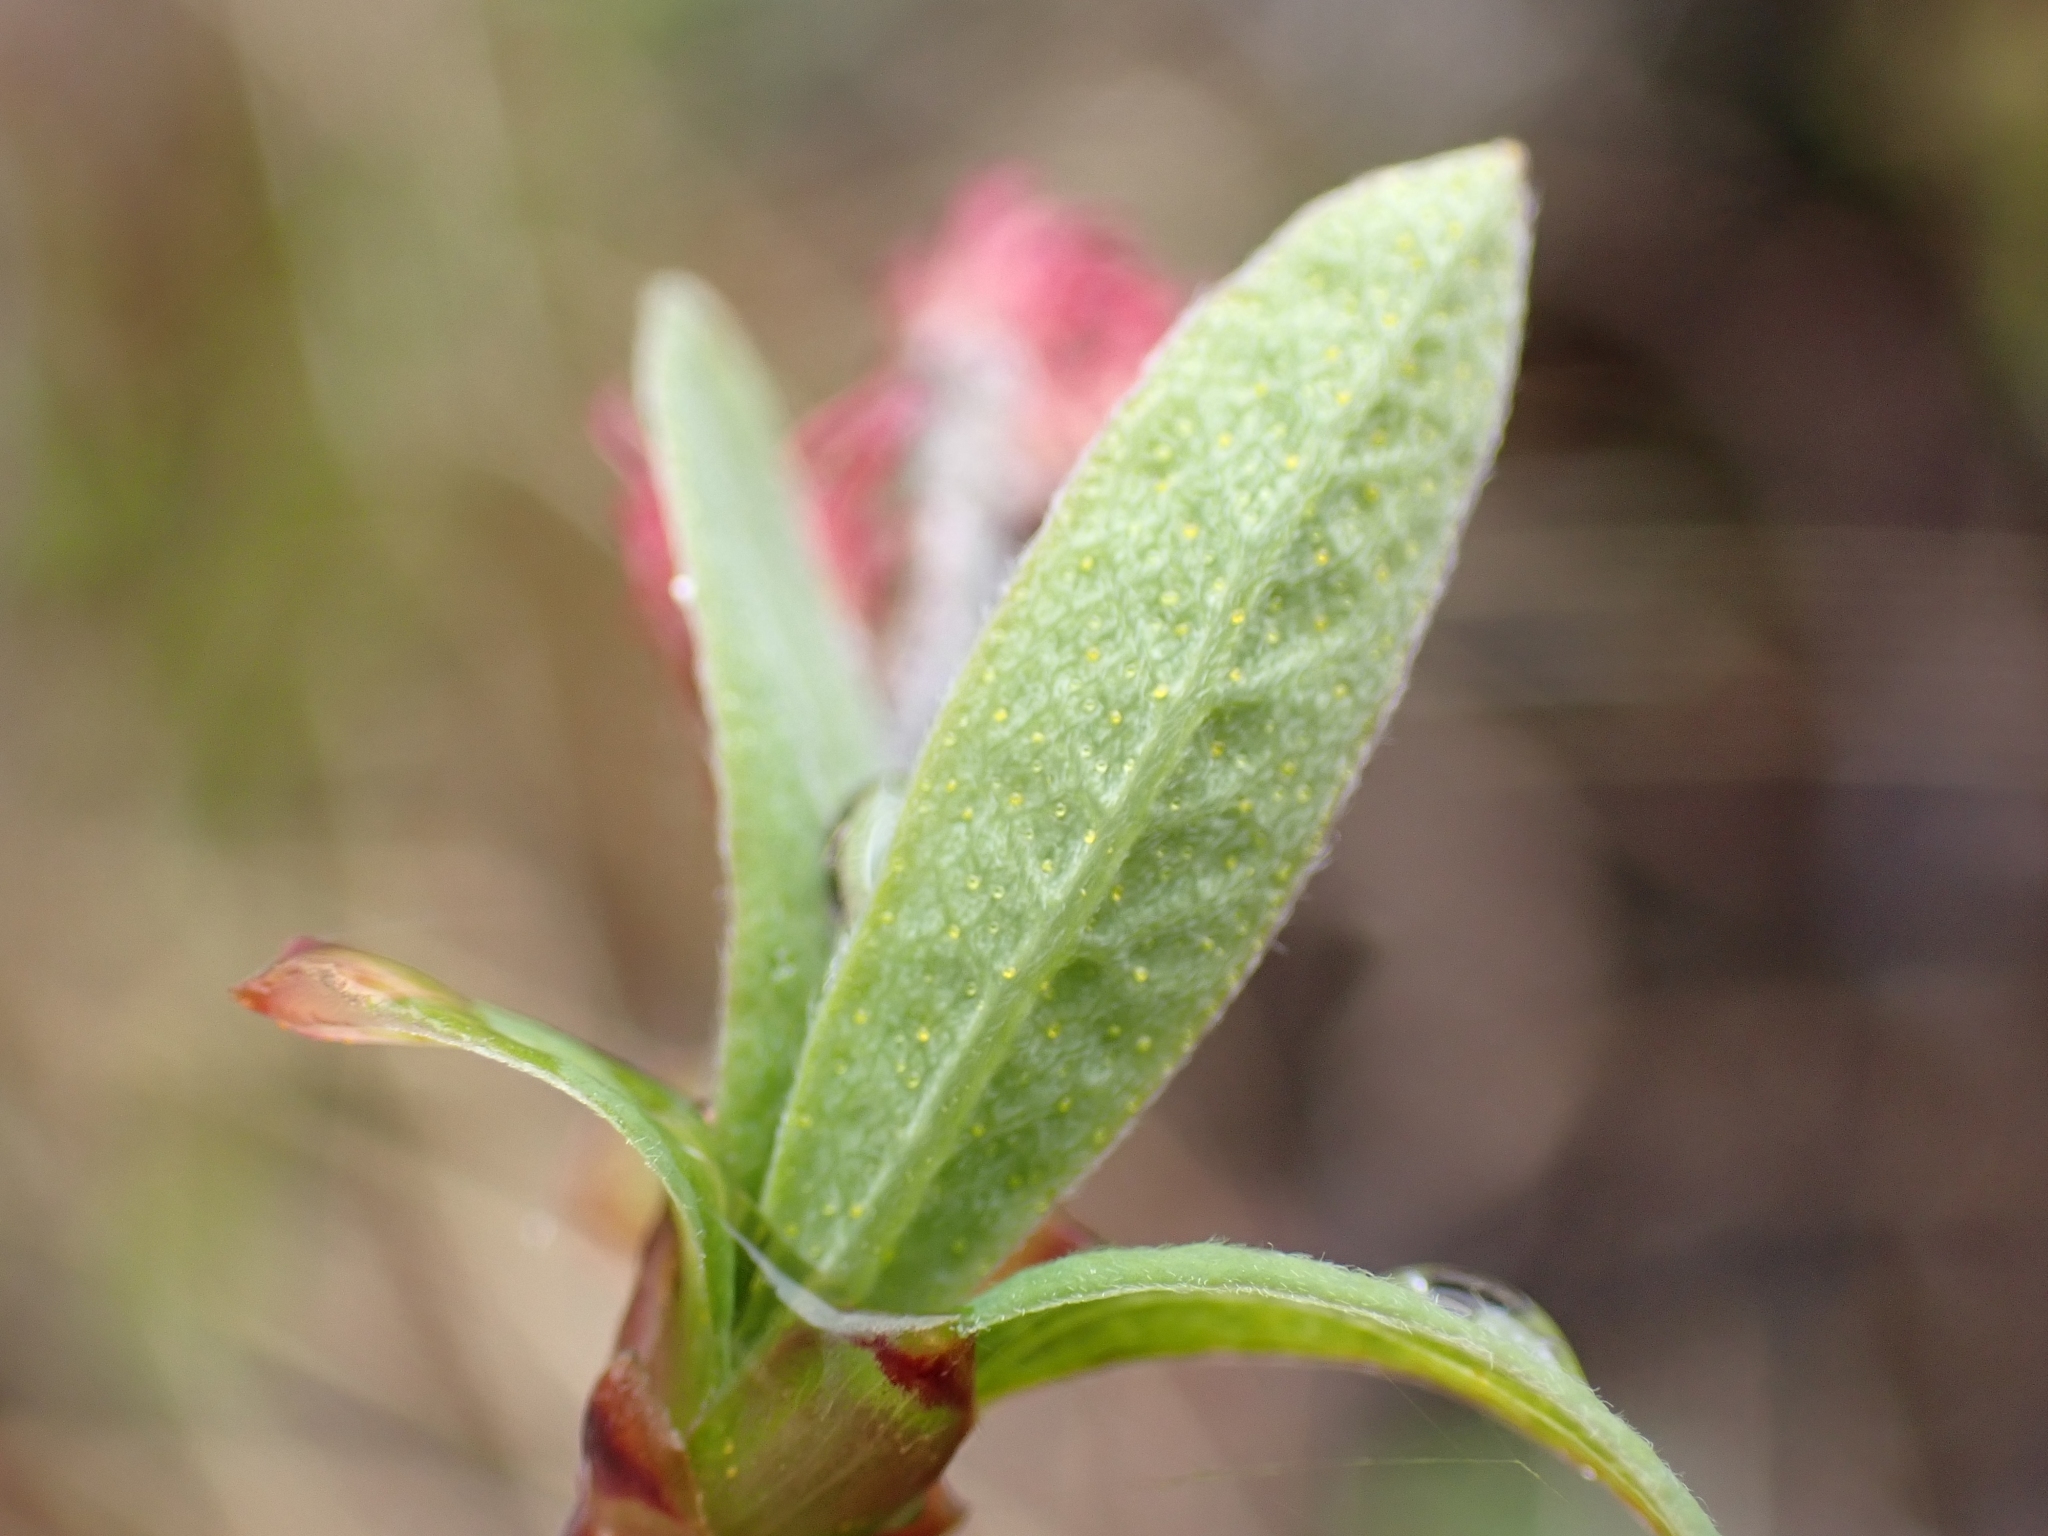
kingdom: Plantae
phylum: Tracheophyta
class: Magnoliopsida
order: Fagales
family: Myricaceae
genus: Myrica
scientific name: Myrica gale
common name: Sweet gale
